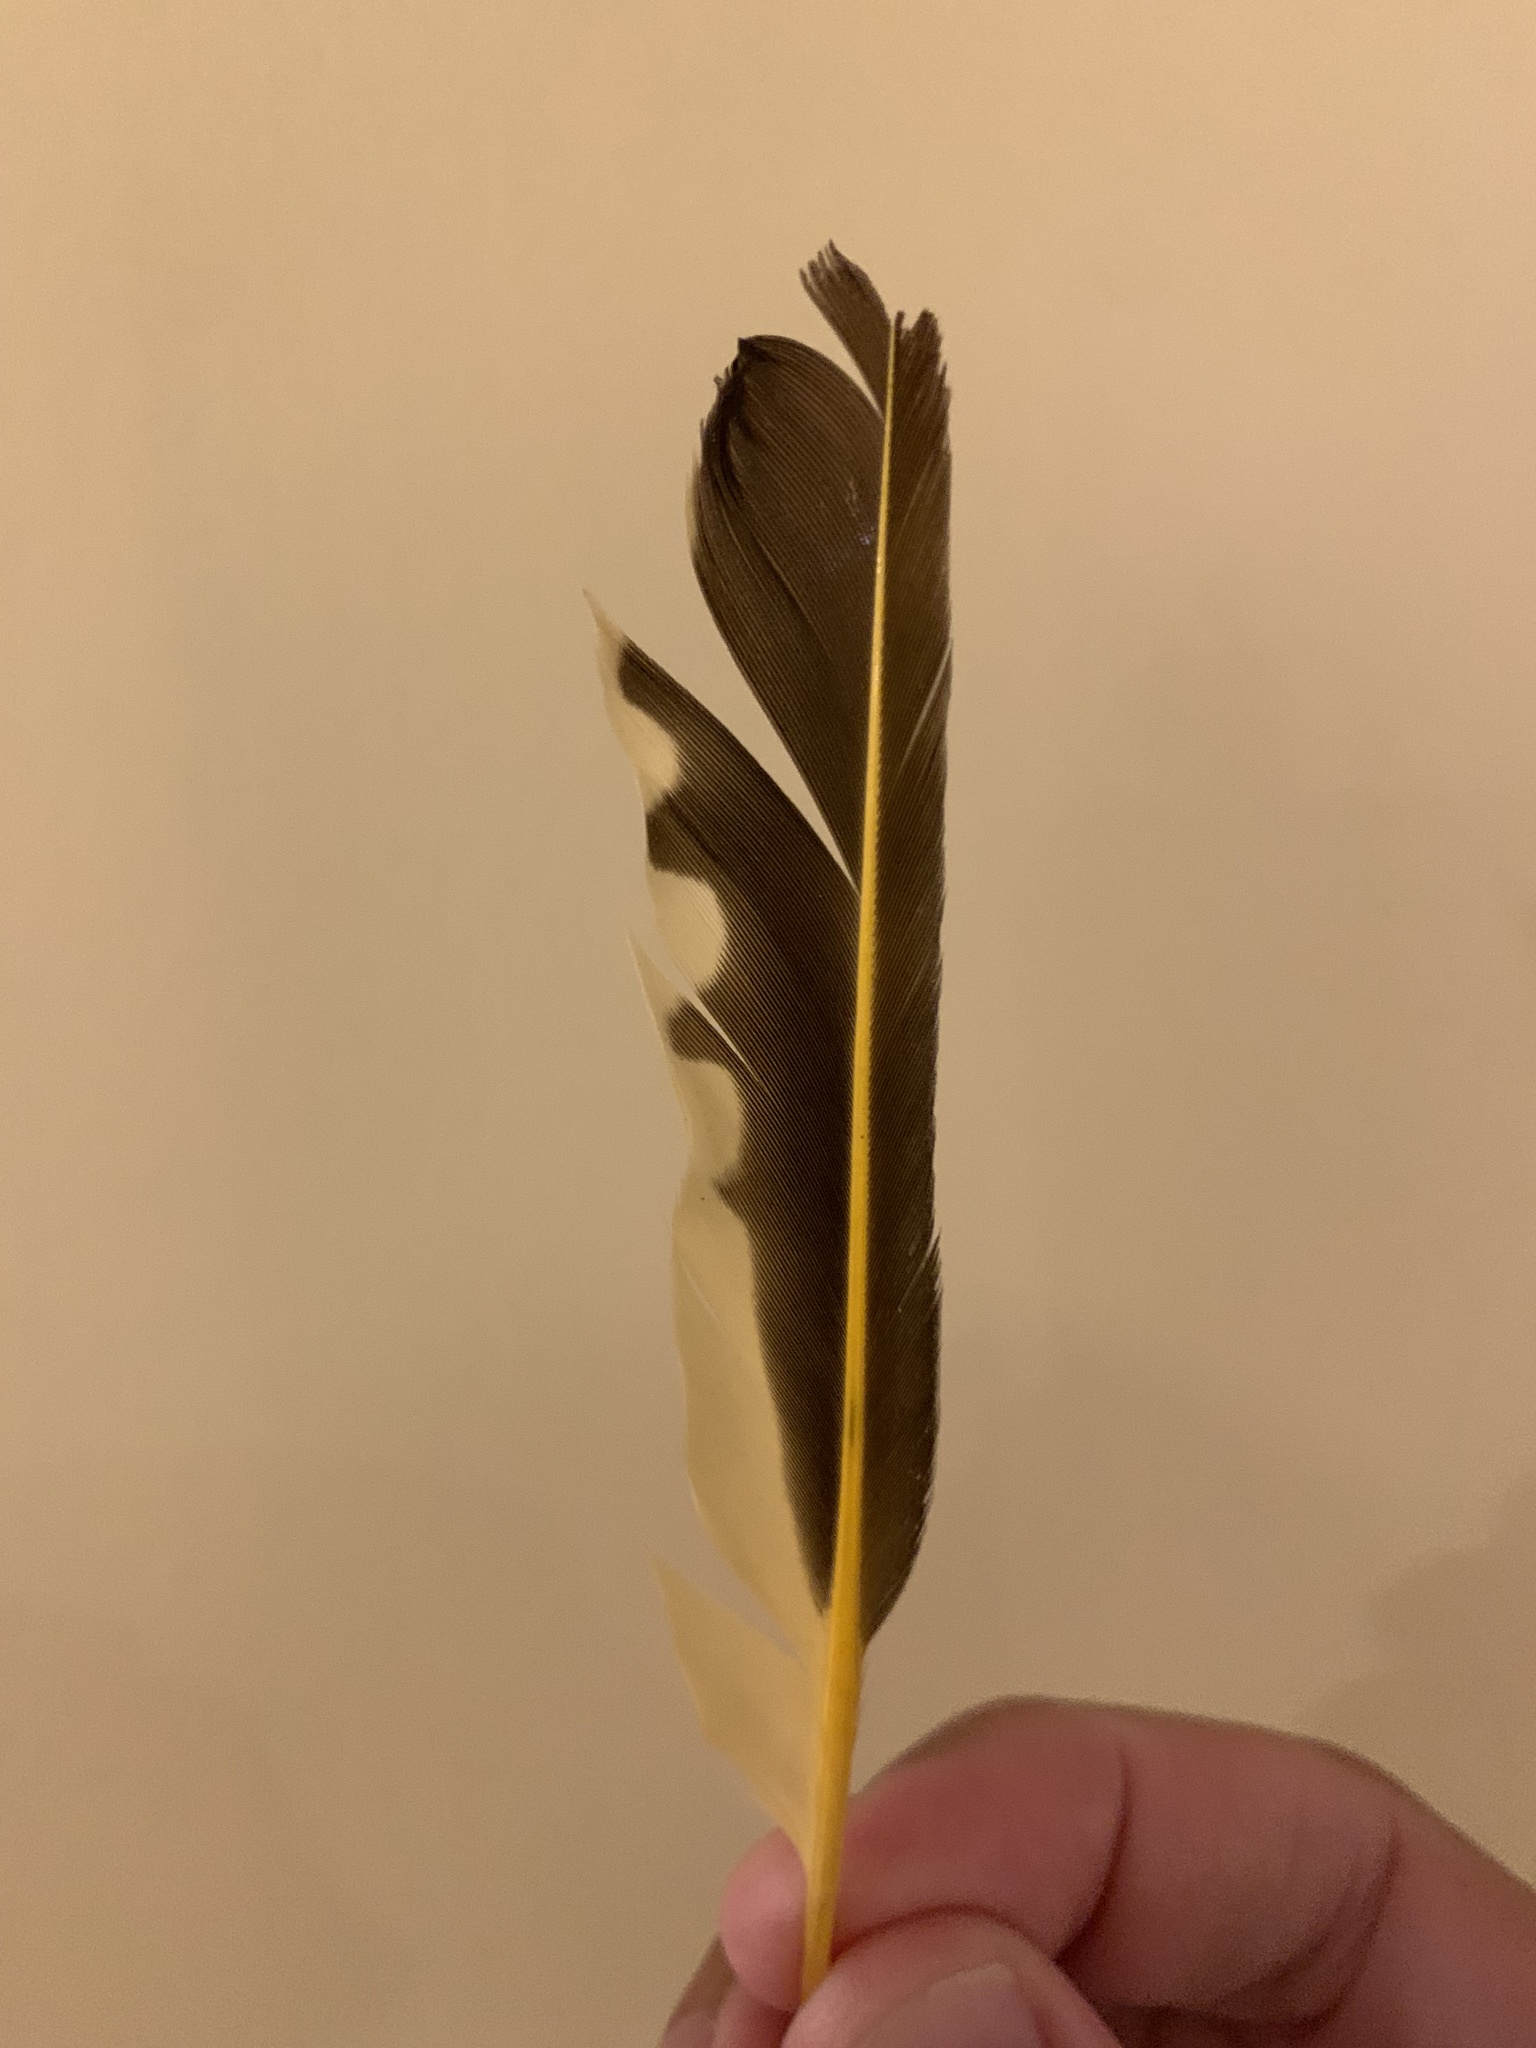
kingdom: Animalia
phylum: Chordata
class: Aves
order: Piciformes
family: Picidae
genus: Colaptes
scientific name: Colaptes auratus
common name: Northern flicker
